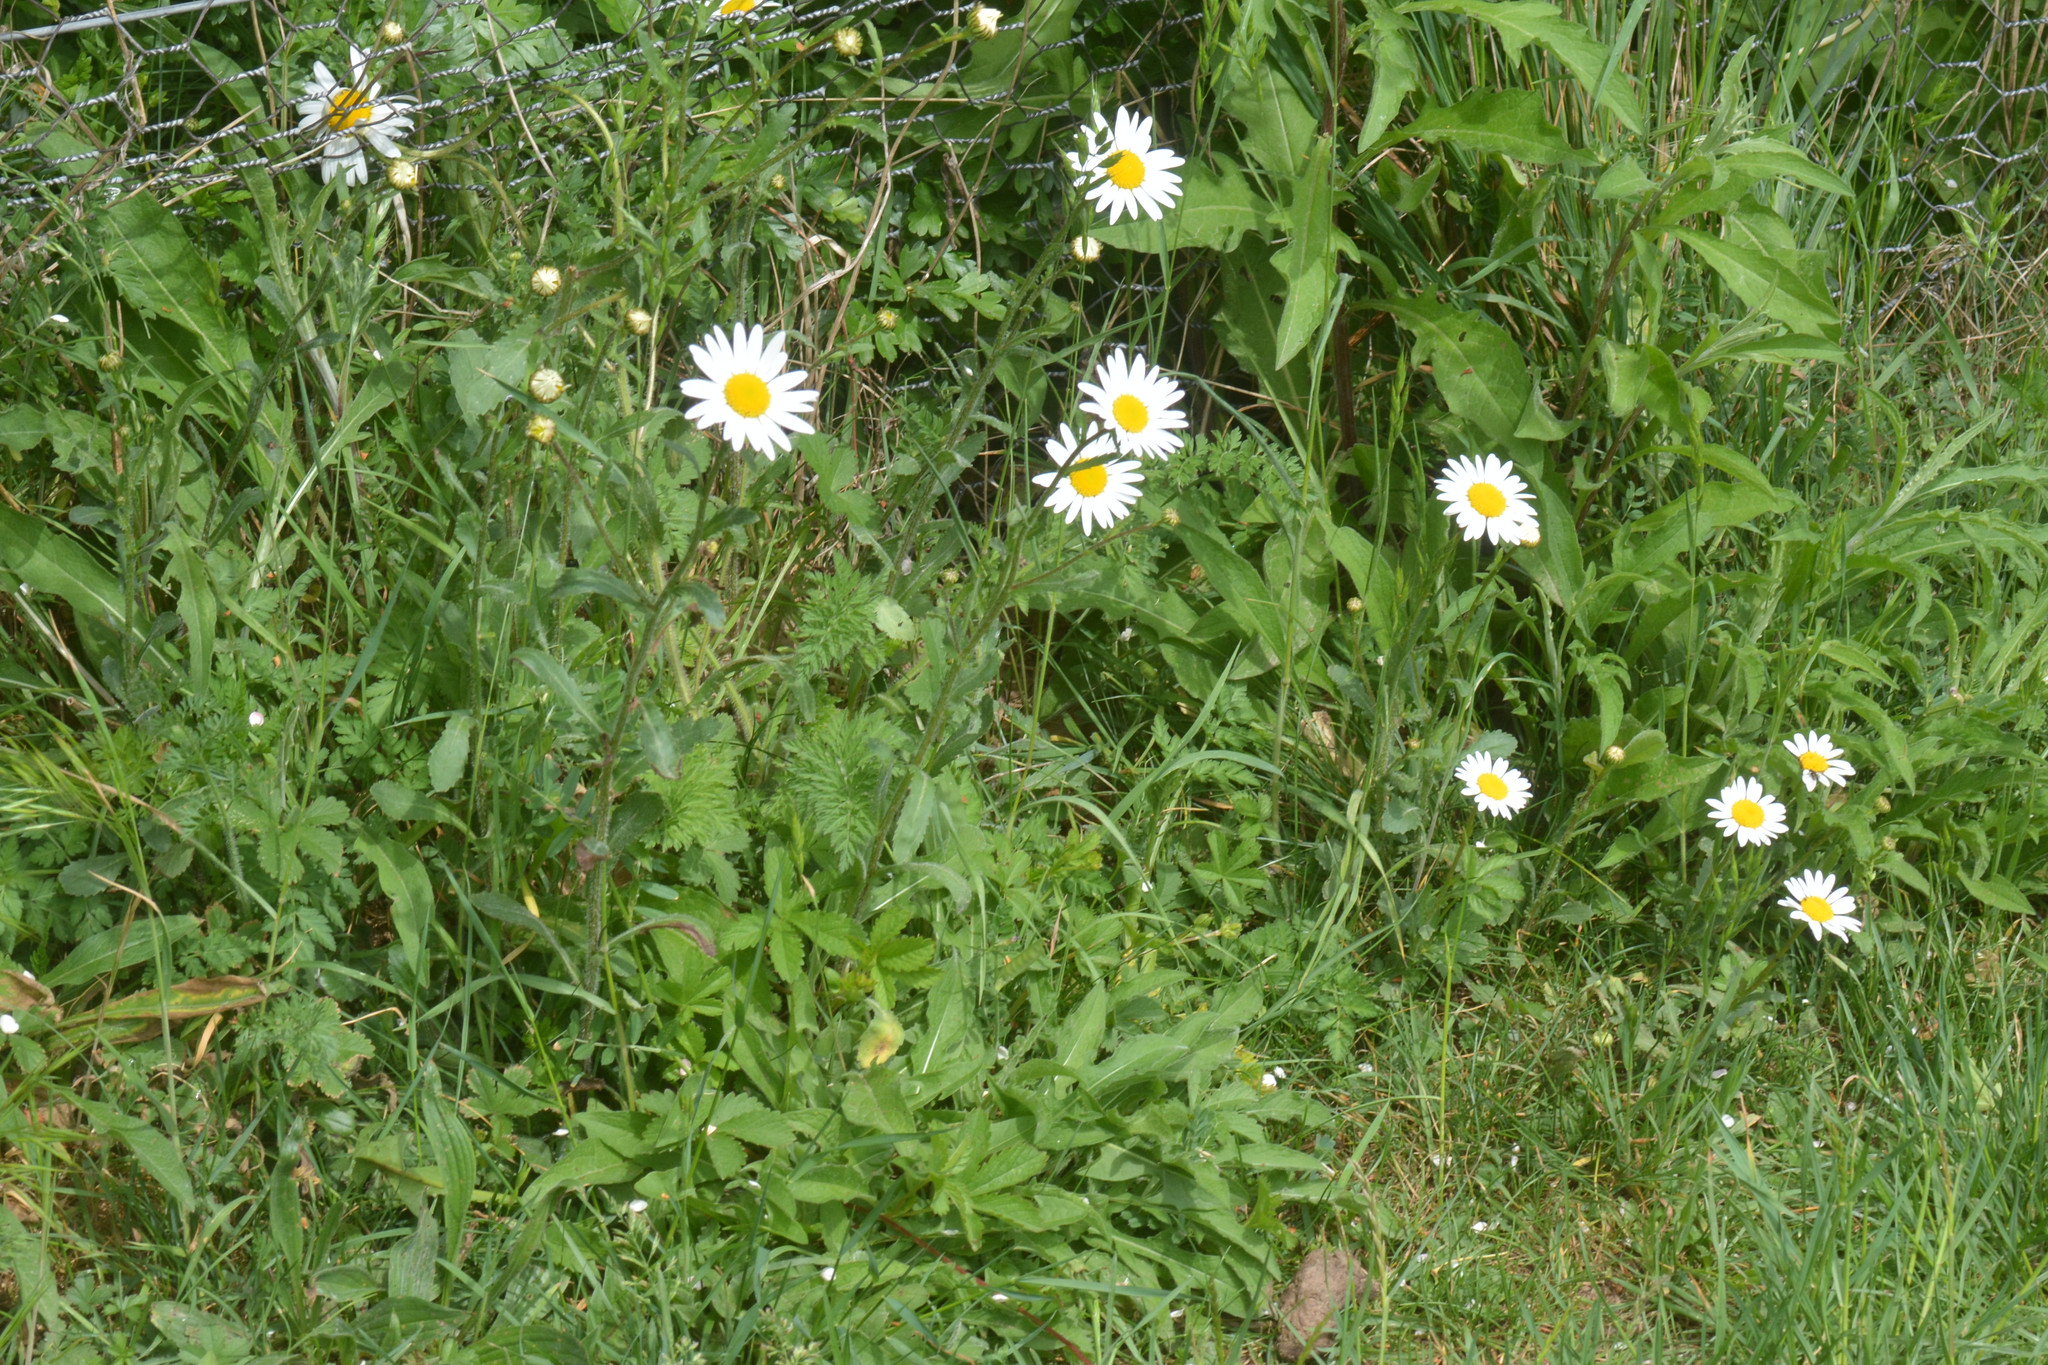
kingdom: Plantae
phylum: Tracheophyta
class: Magnoliopsida
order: Asterales
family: Asteraceae
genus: Leucanthemum
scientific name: Leucanthemum vulgare
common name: Oxeye daisy
